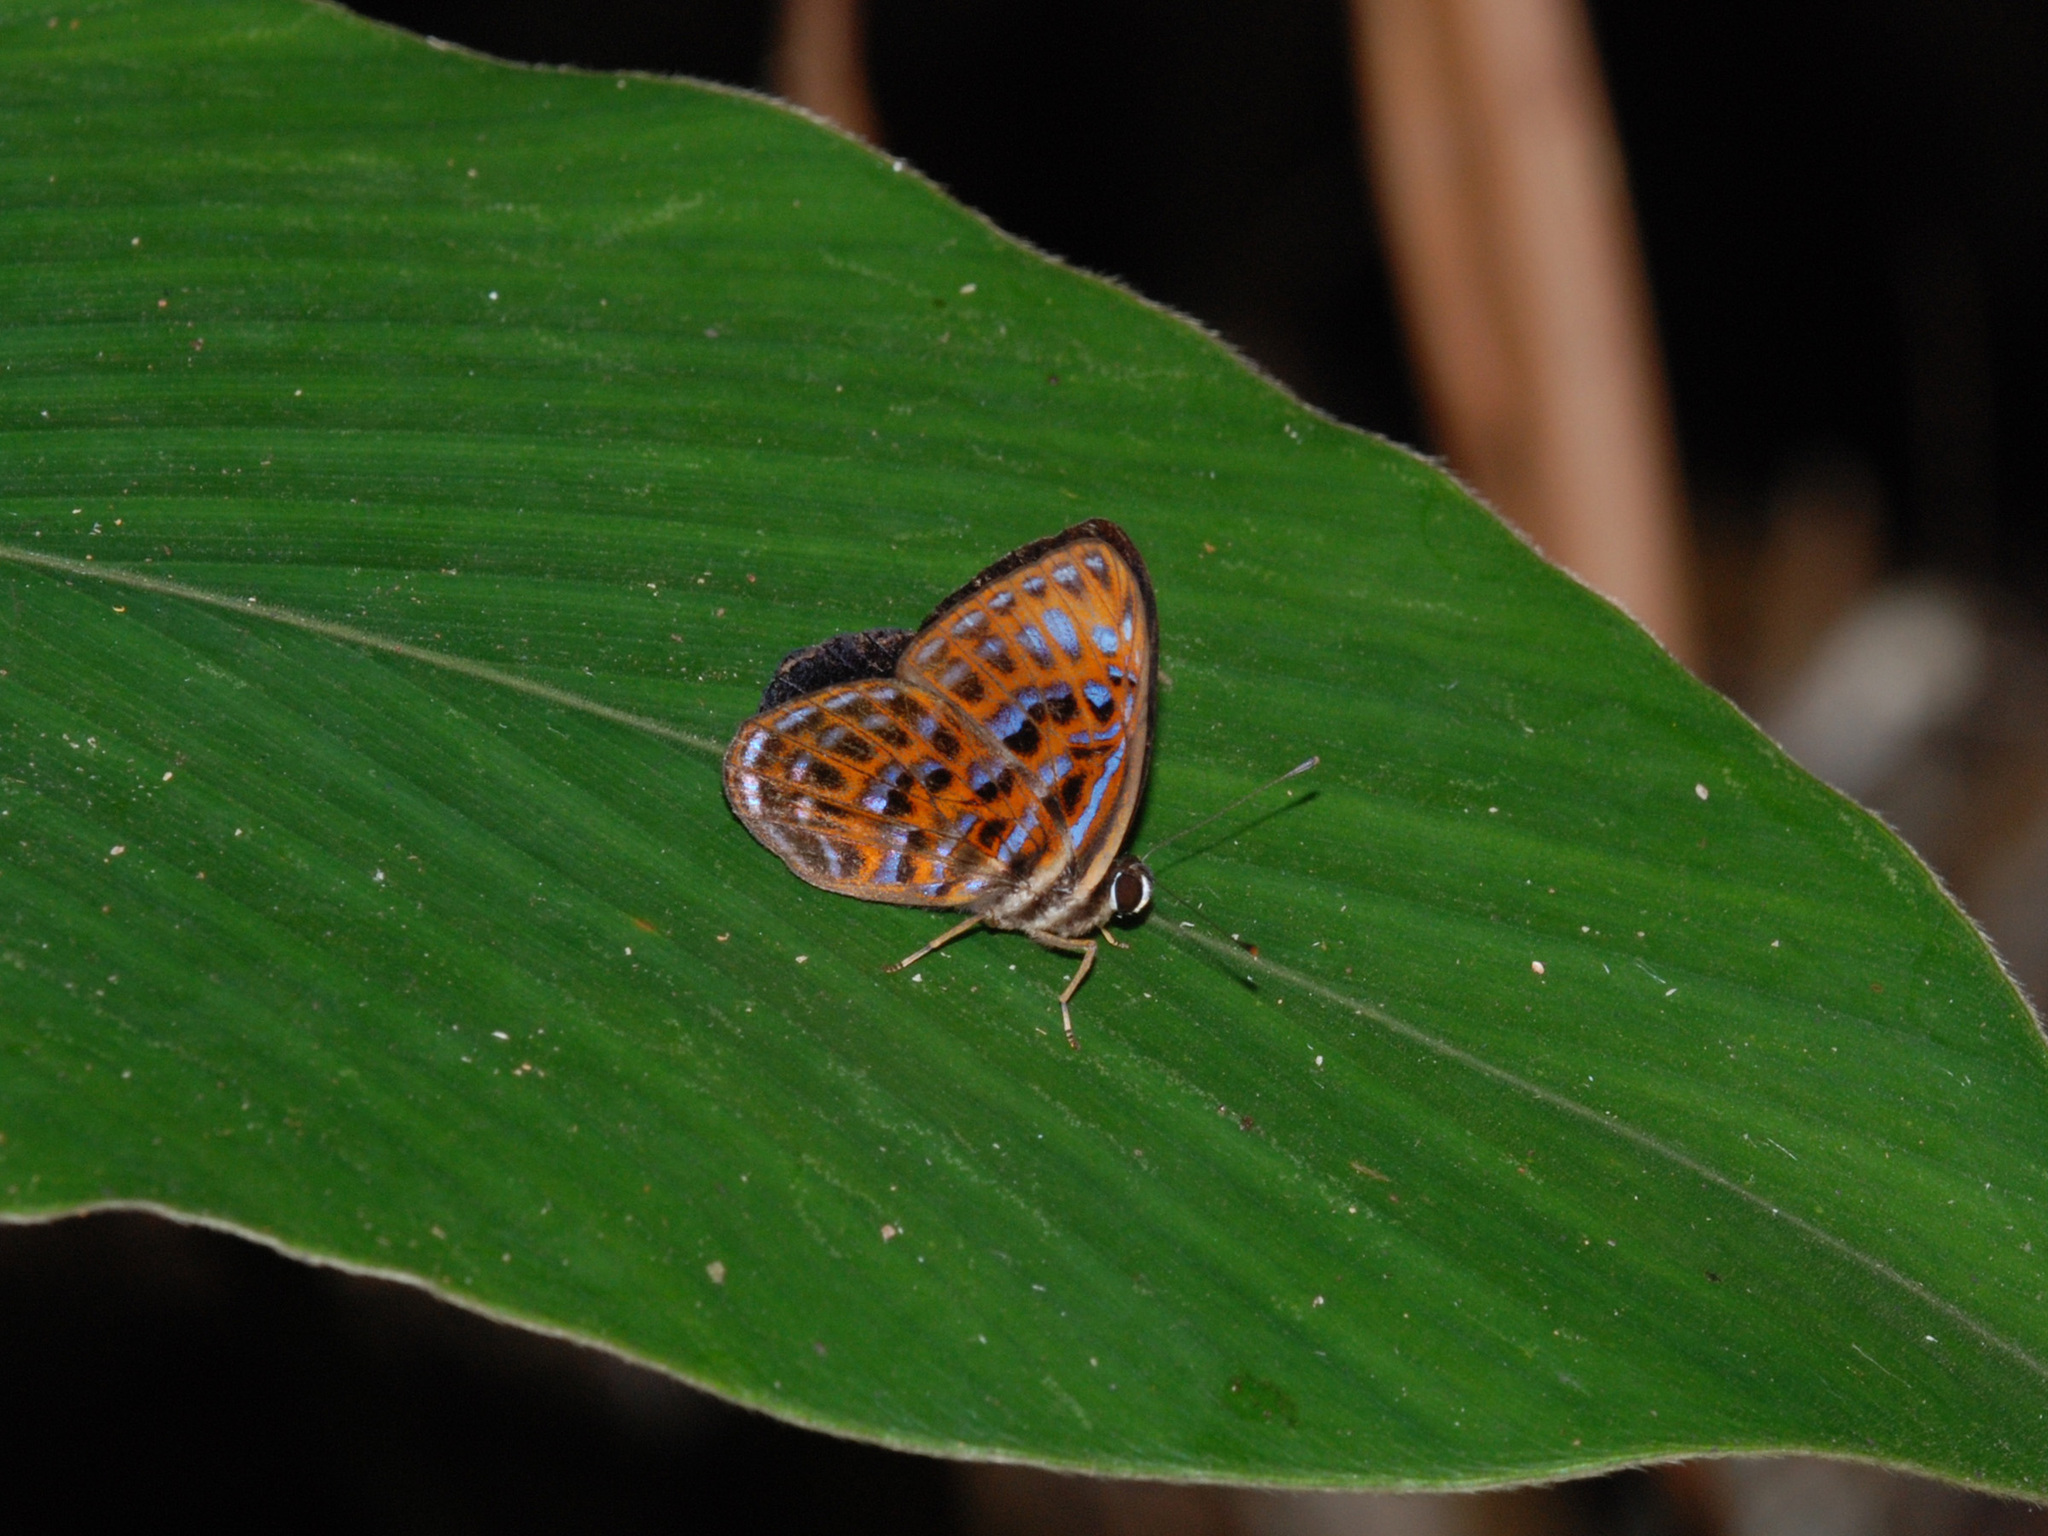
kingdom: Animalia
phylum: Arthropoda
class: Insecta
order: Lepidoptera
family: Riodinidae
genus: Laxita
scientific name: Laxita thuisto
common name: Lesser harlequin
